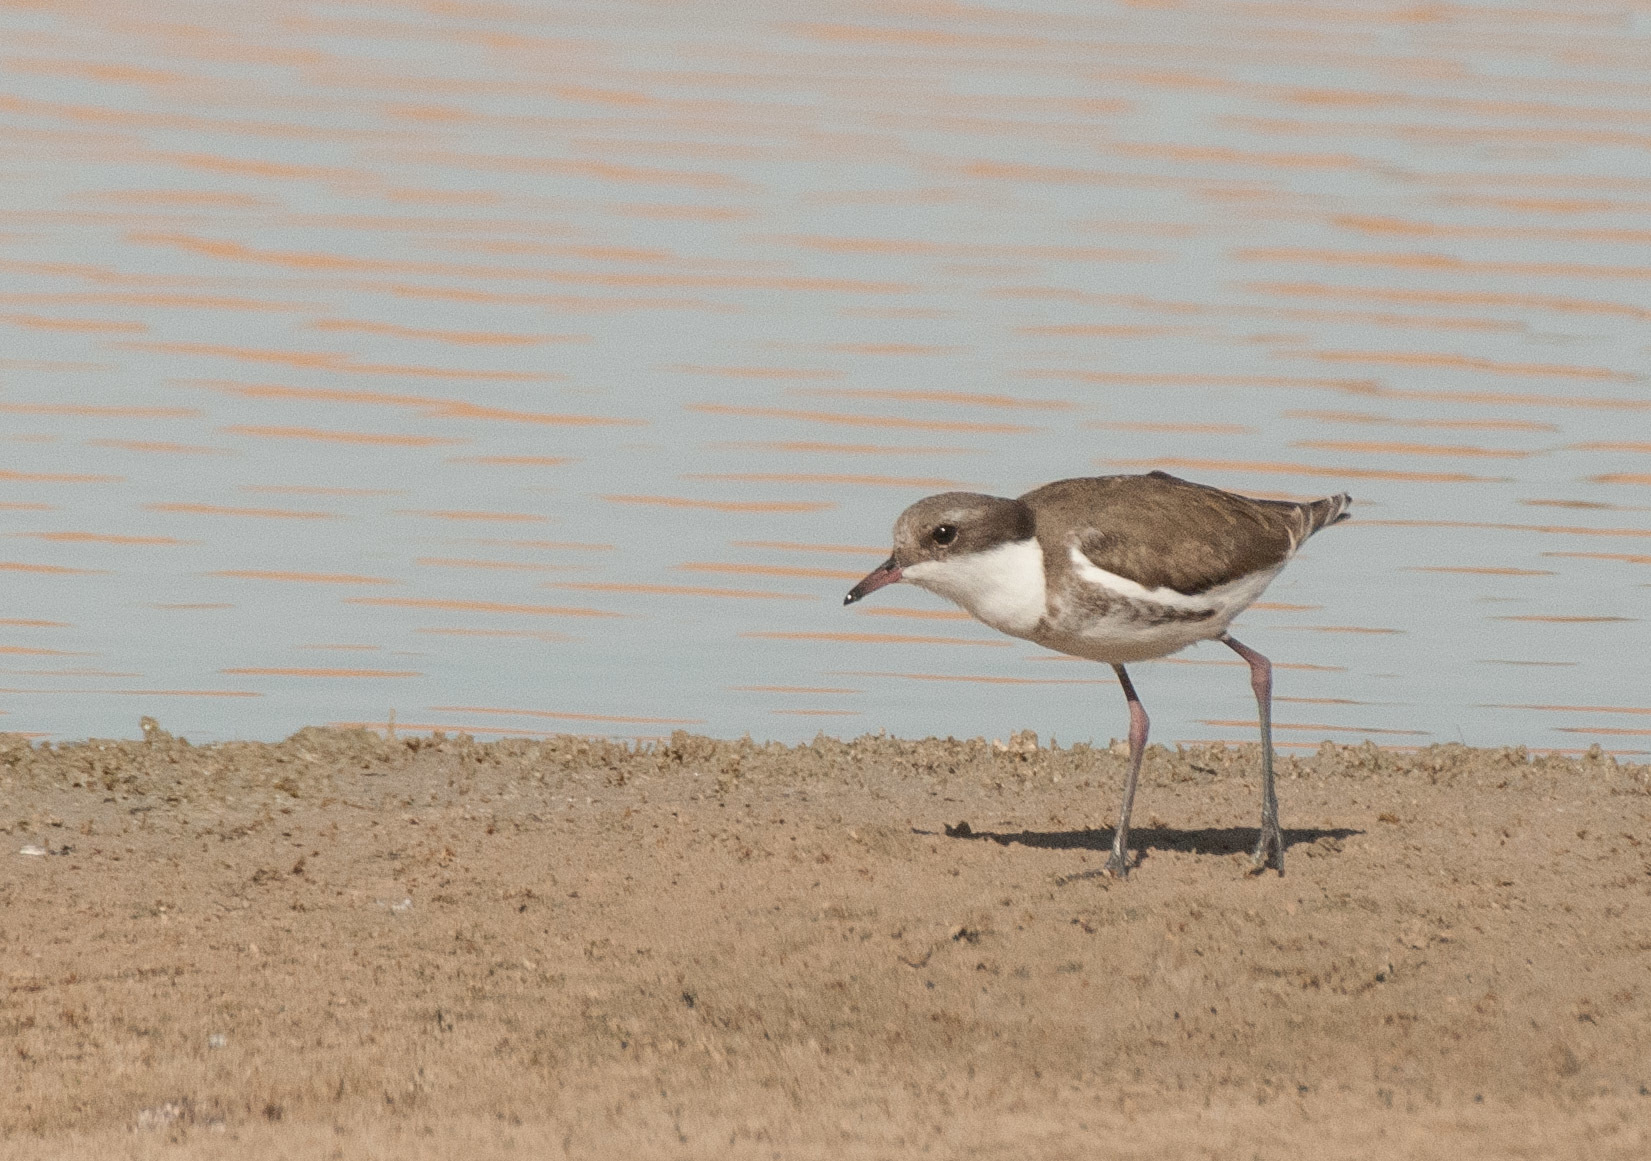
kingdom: Animalia
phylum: Chordata
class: Aves
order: Charadriiformes
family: Charadriidae
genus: Erythrogonys
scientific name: Erythrogonys cinctus
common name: Red-kneed dotterel
